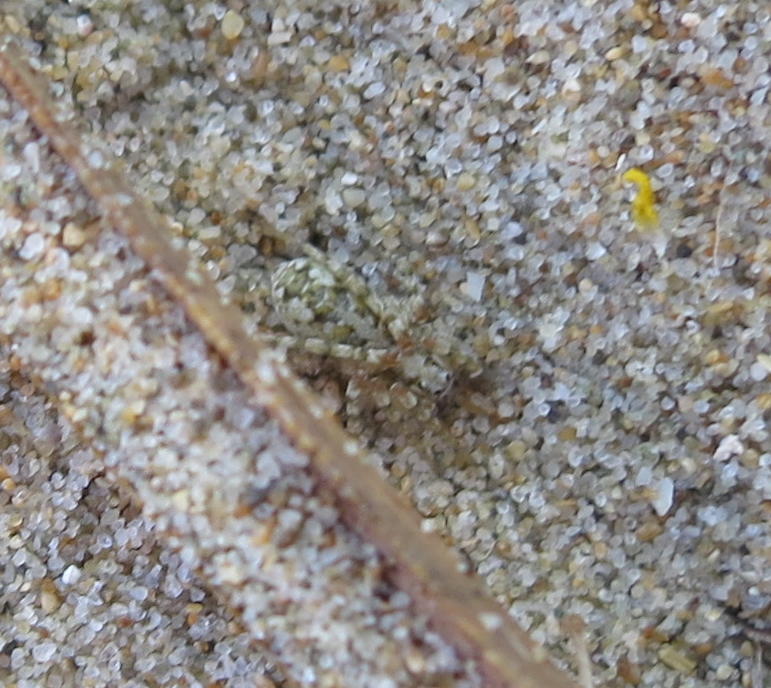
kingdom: Animalia
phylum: Arthropoda
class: Arachnida
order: Araneae
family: Lycosidae
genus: Anoteropsis
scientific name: Anoteropsis litoralis
